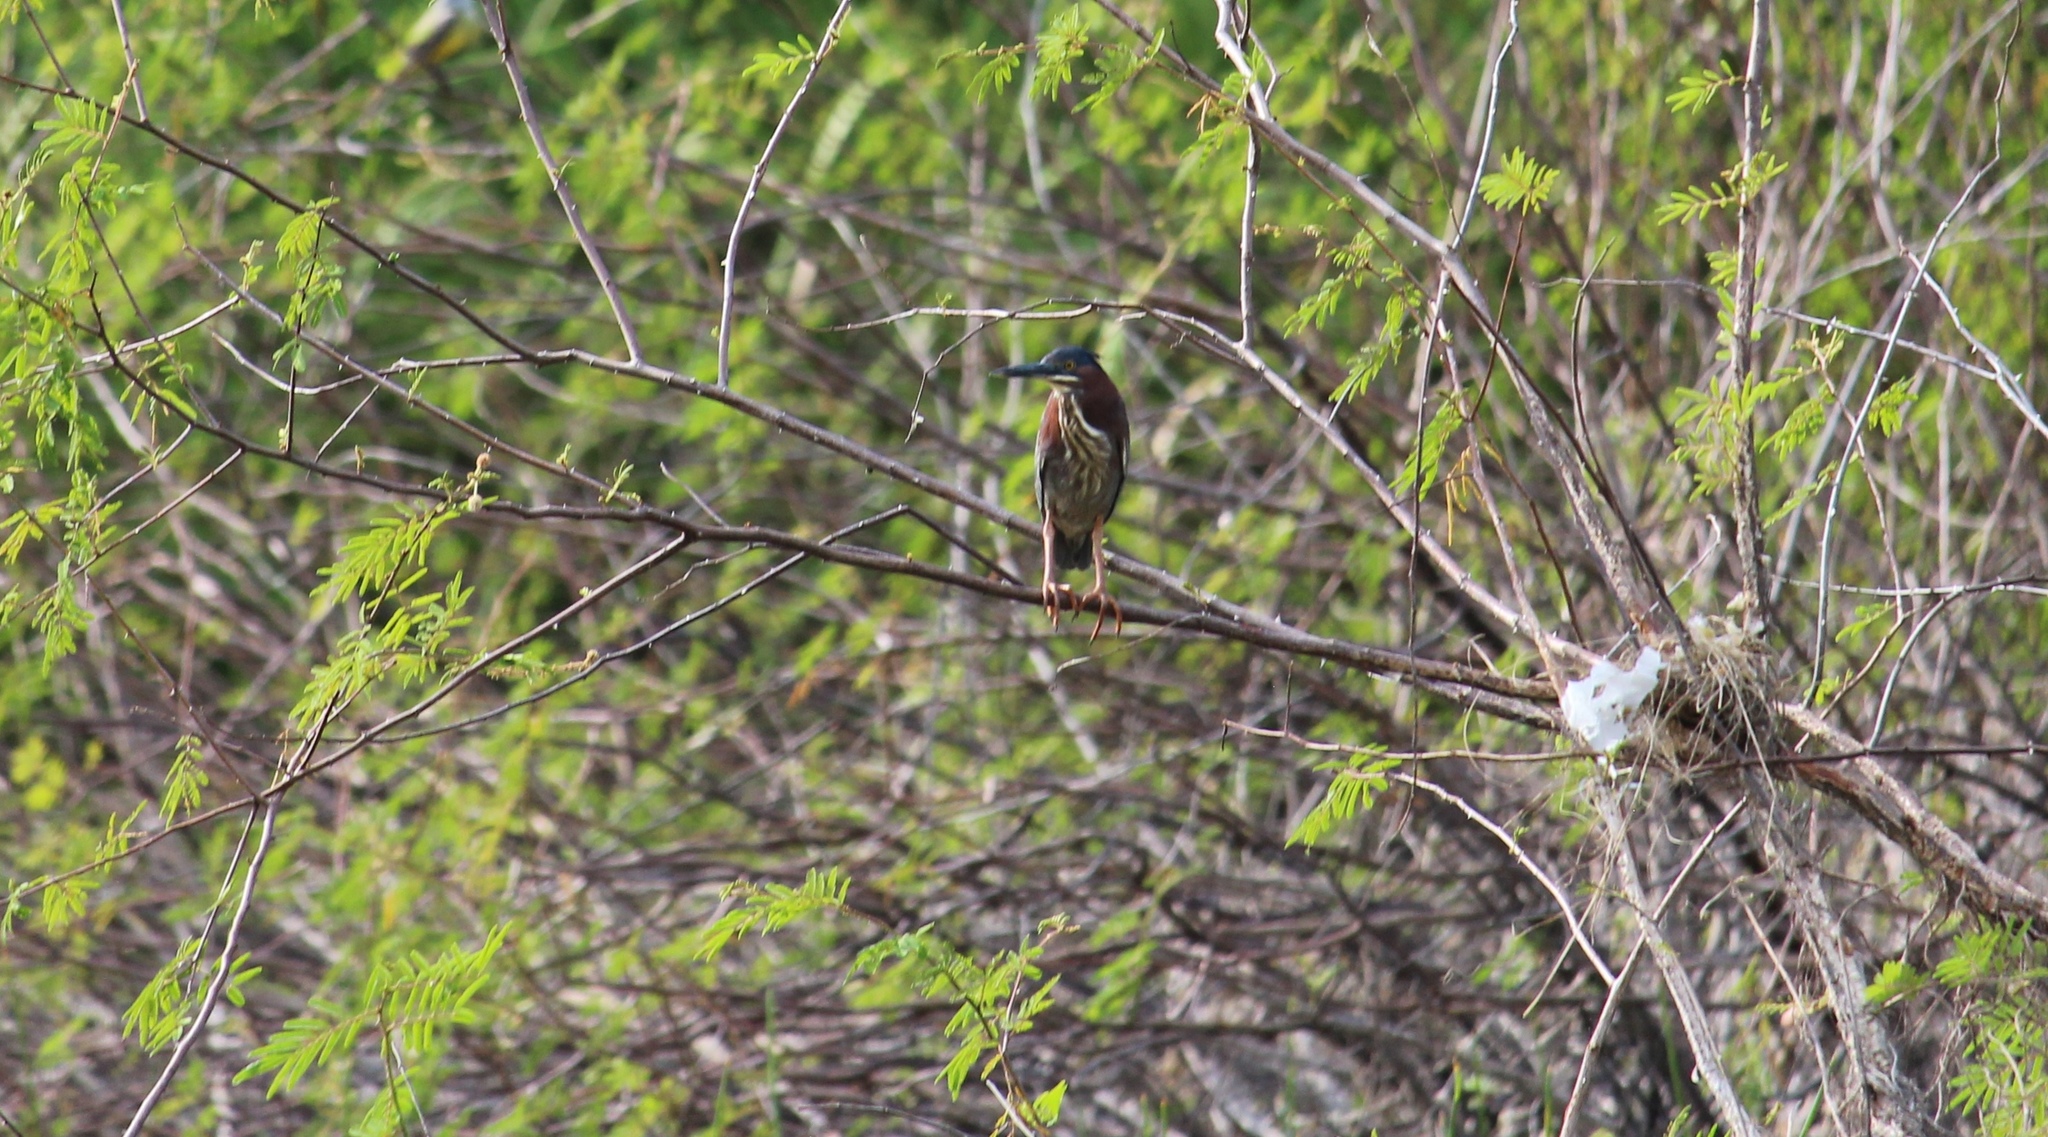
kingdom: Animalia
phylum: Chordata
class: Aves
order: Pelecaniformes
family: Ardeidae
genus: Butorides
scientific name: Butorides virescens
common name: Green heron
